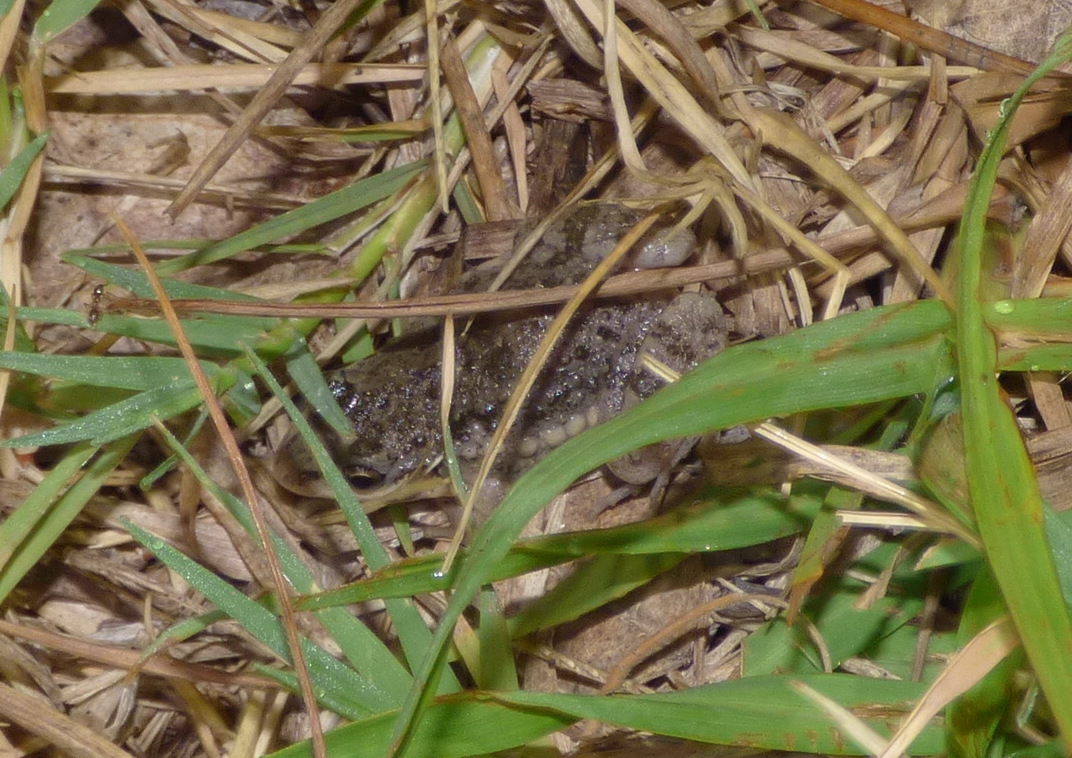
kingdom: Animalia
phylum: Chordata
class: Amphibia
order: Anura
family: Leptodactylidae
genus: Leptodactylus
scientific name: Leptodactylus latinasus
